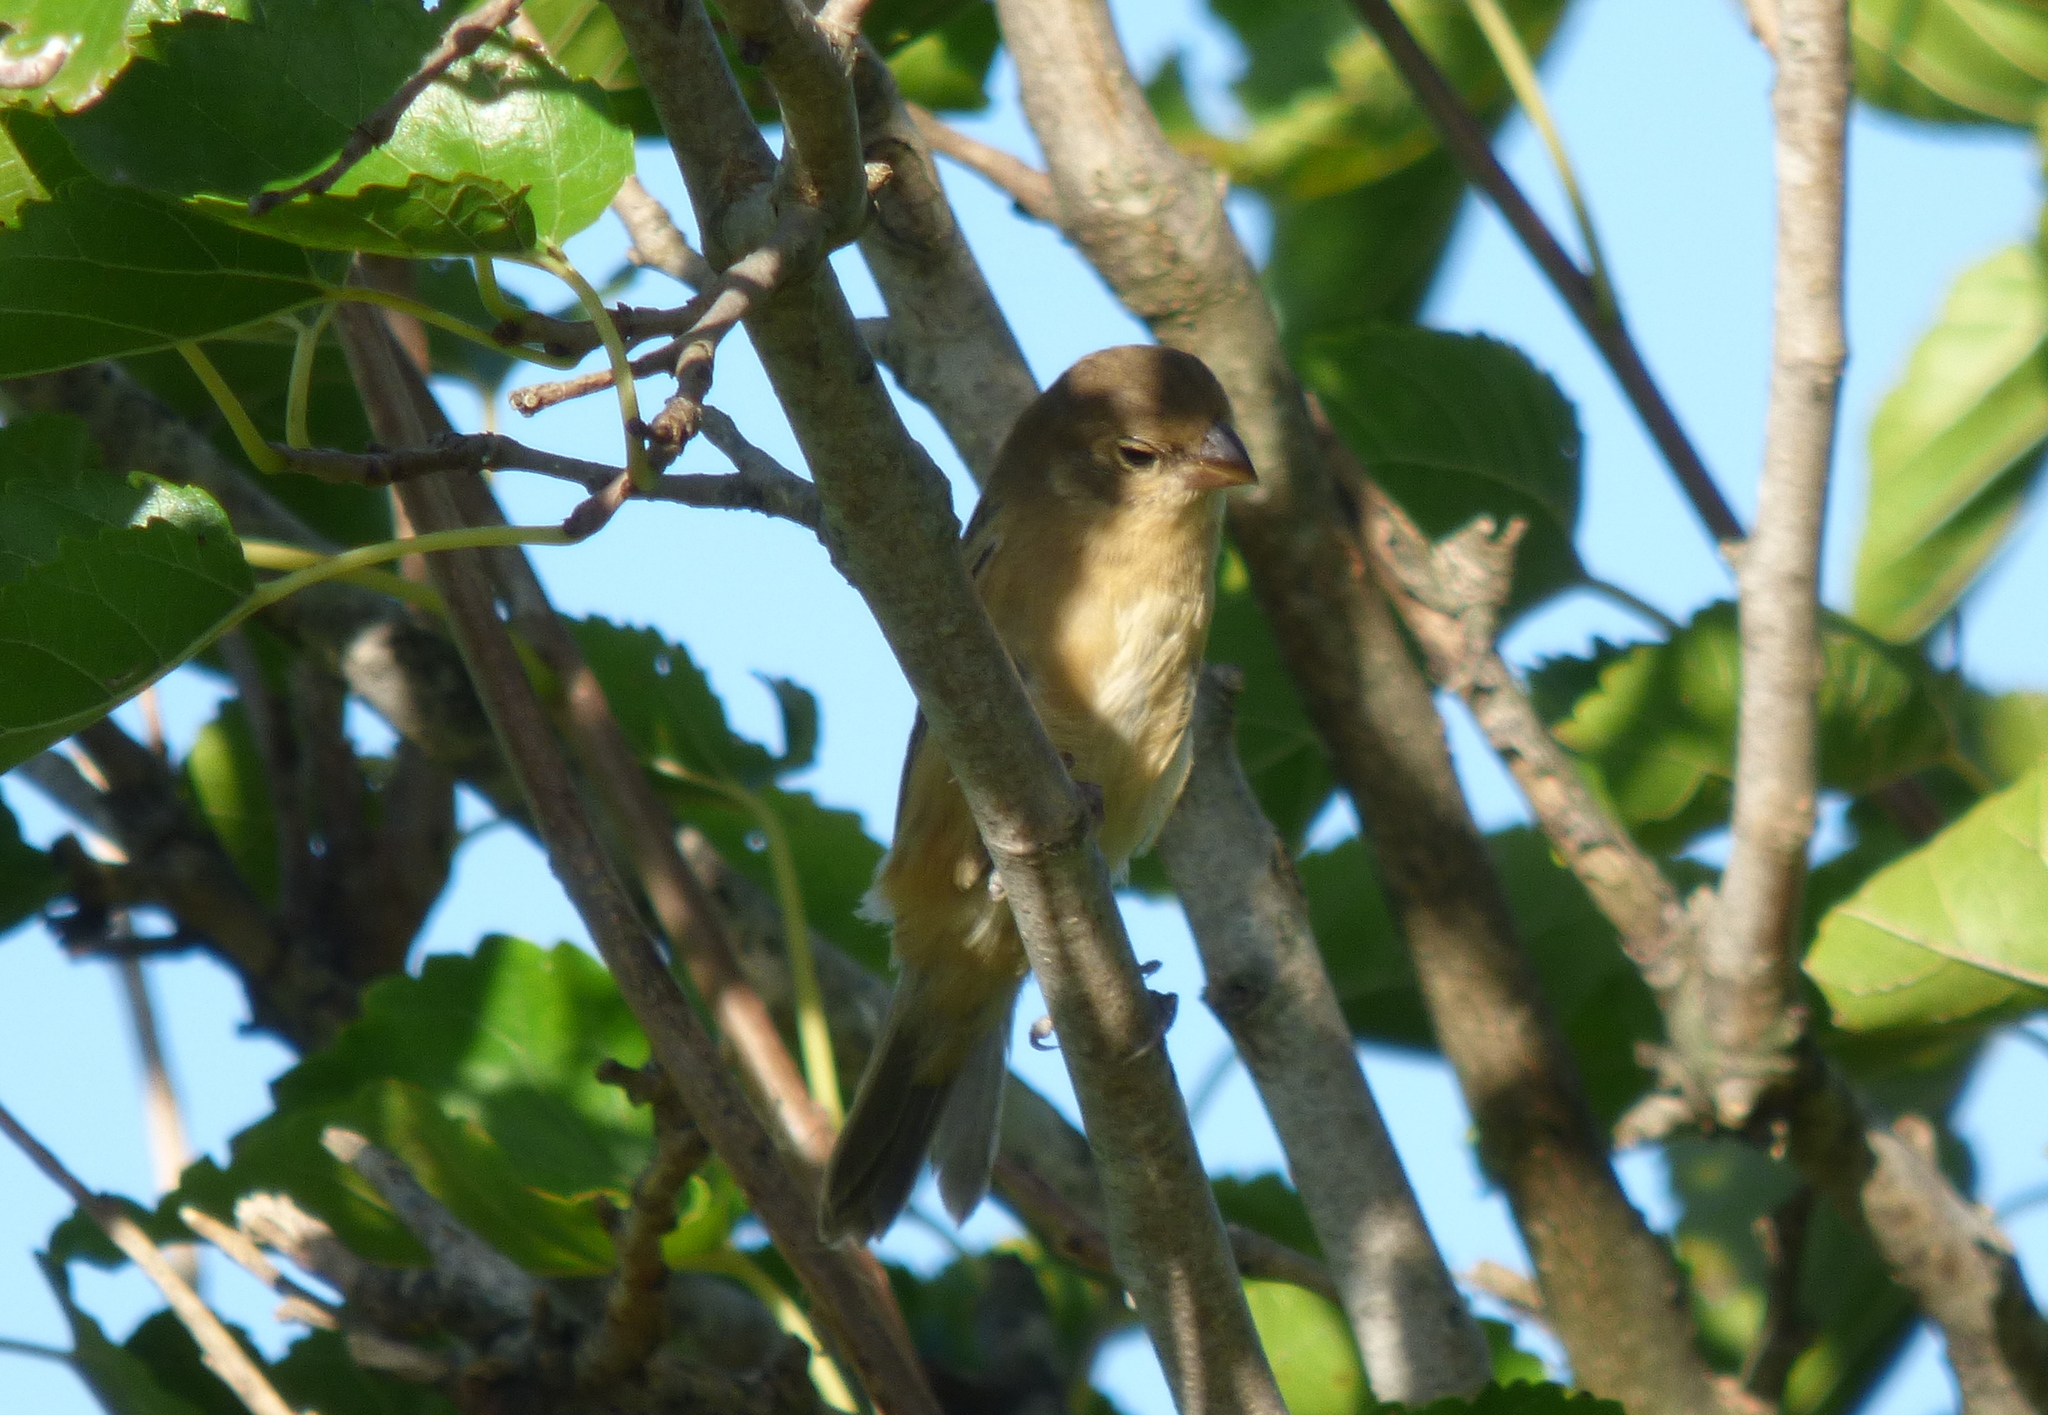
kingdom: Animalia
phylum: Chordata
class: Aves
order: Passeriformes
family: Thraupidae
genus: Sporophila
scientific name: Sporophila ruficollis
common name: Dark-throated seedeater
